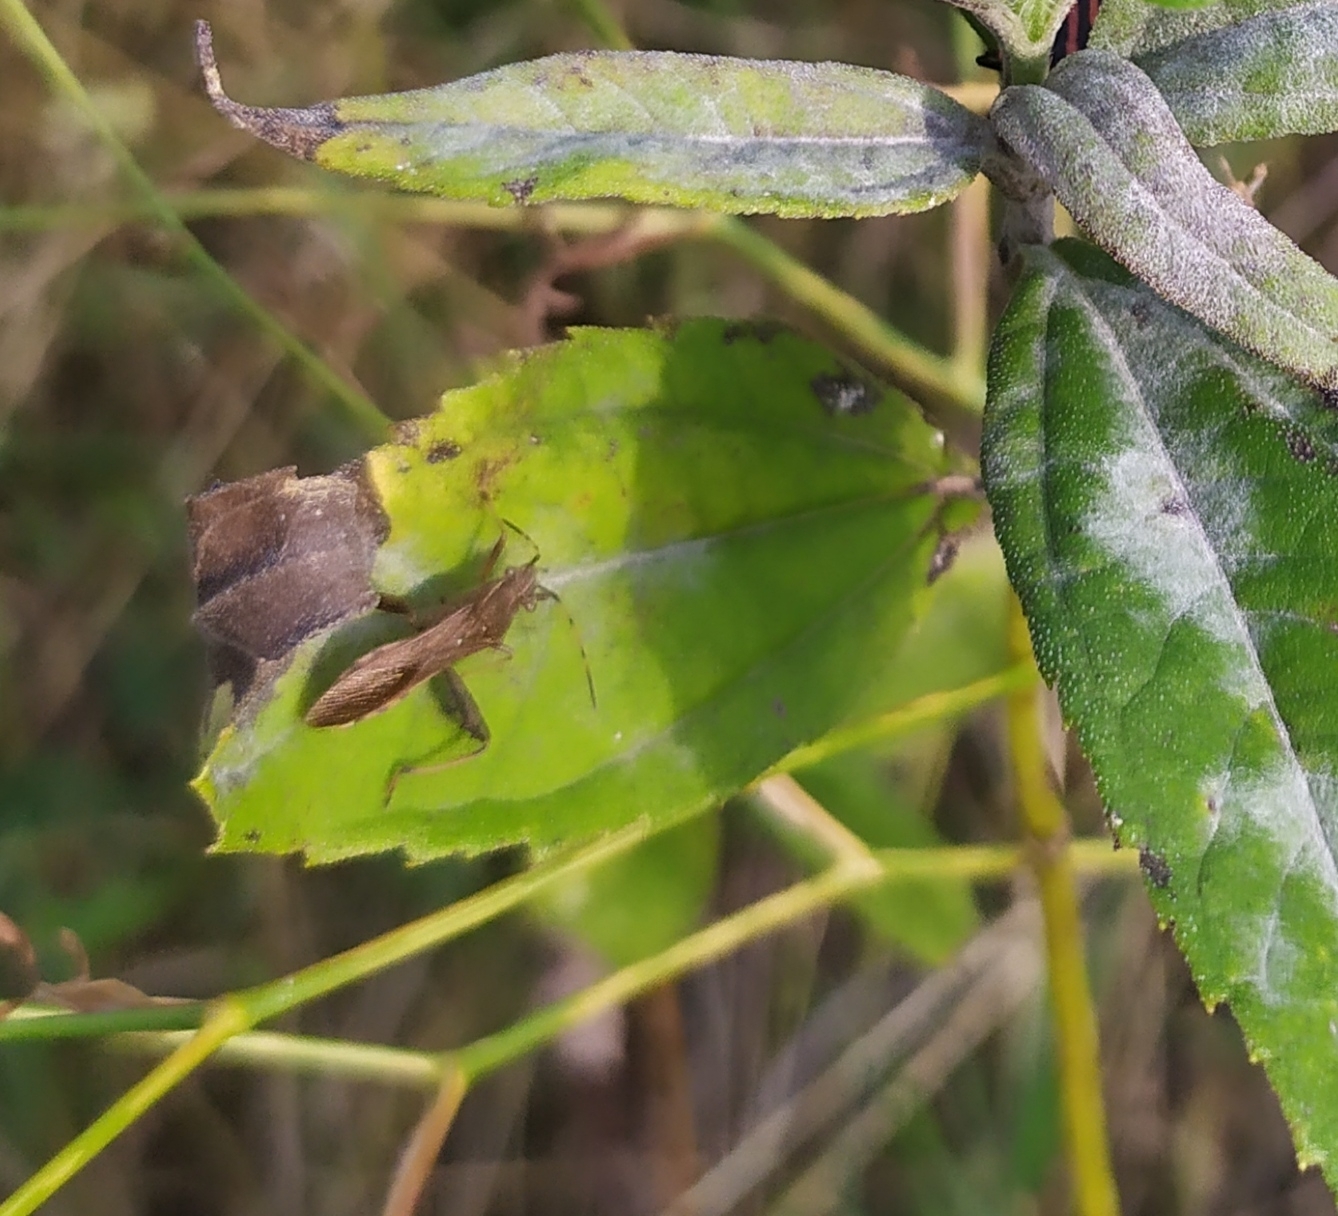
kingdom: Animalia
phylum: Arthropoda
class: Insecta
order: Hemiptera
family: Alydidae
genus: Camptopus
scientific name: Camptopus lateralis
